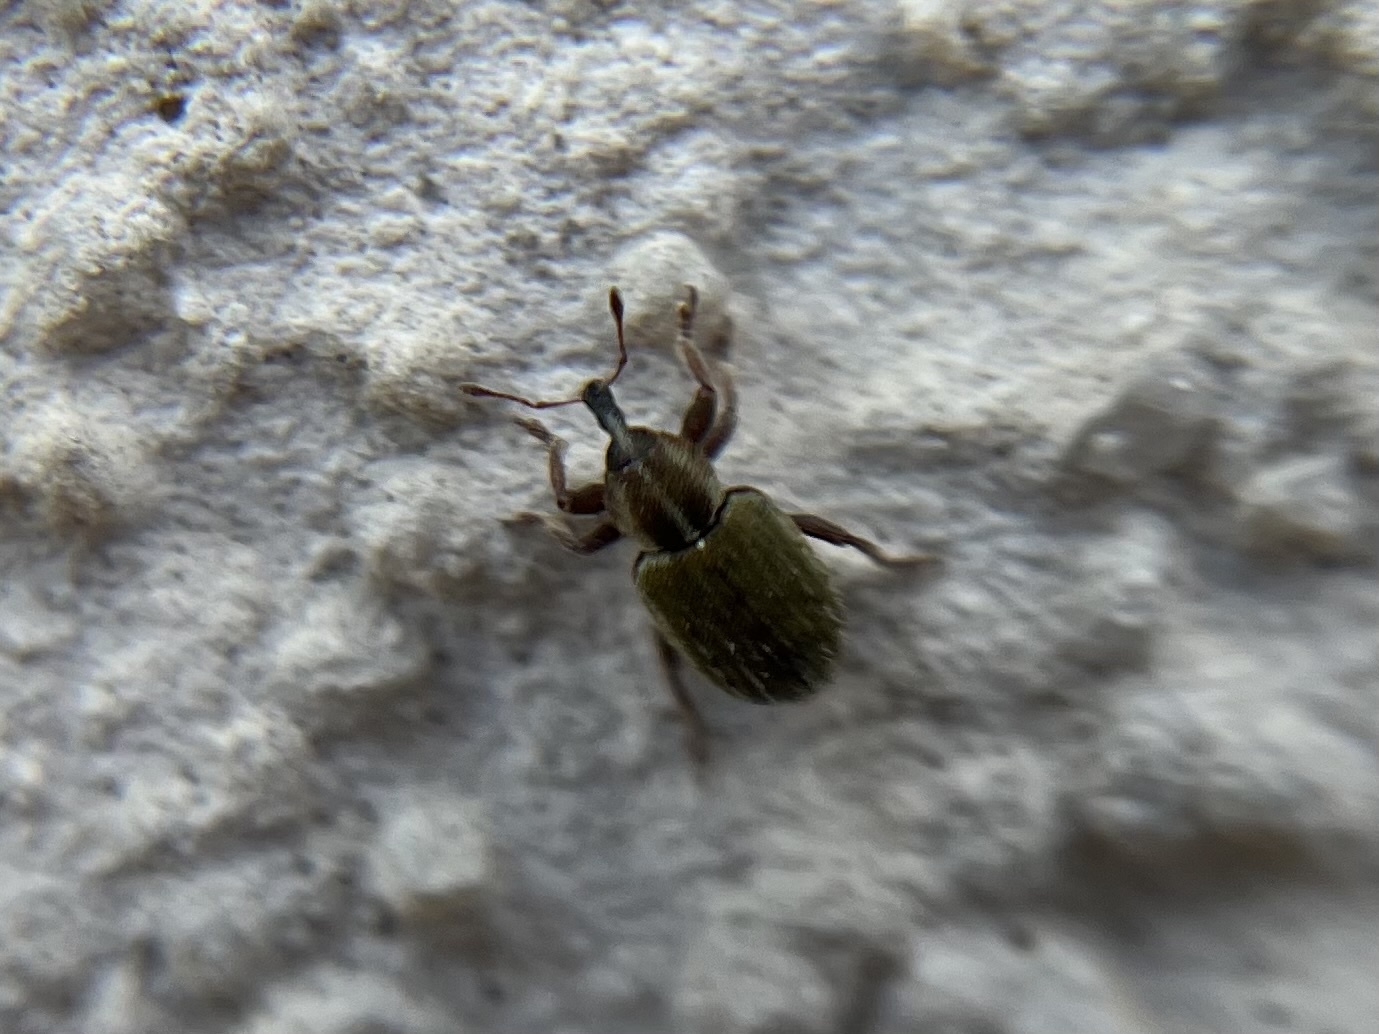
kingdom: Animalia
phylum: Arthropoda
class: Insecta
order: Coleoptera
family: Curculionidae
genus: Hypera
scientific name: Hypera nigrirostris
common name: Black-beaked green weevil
